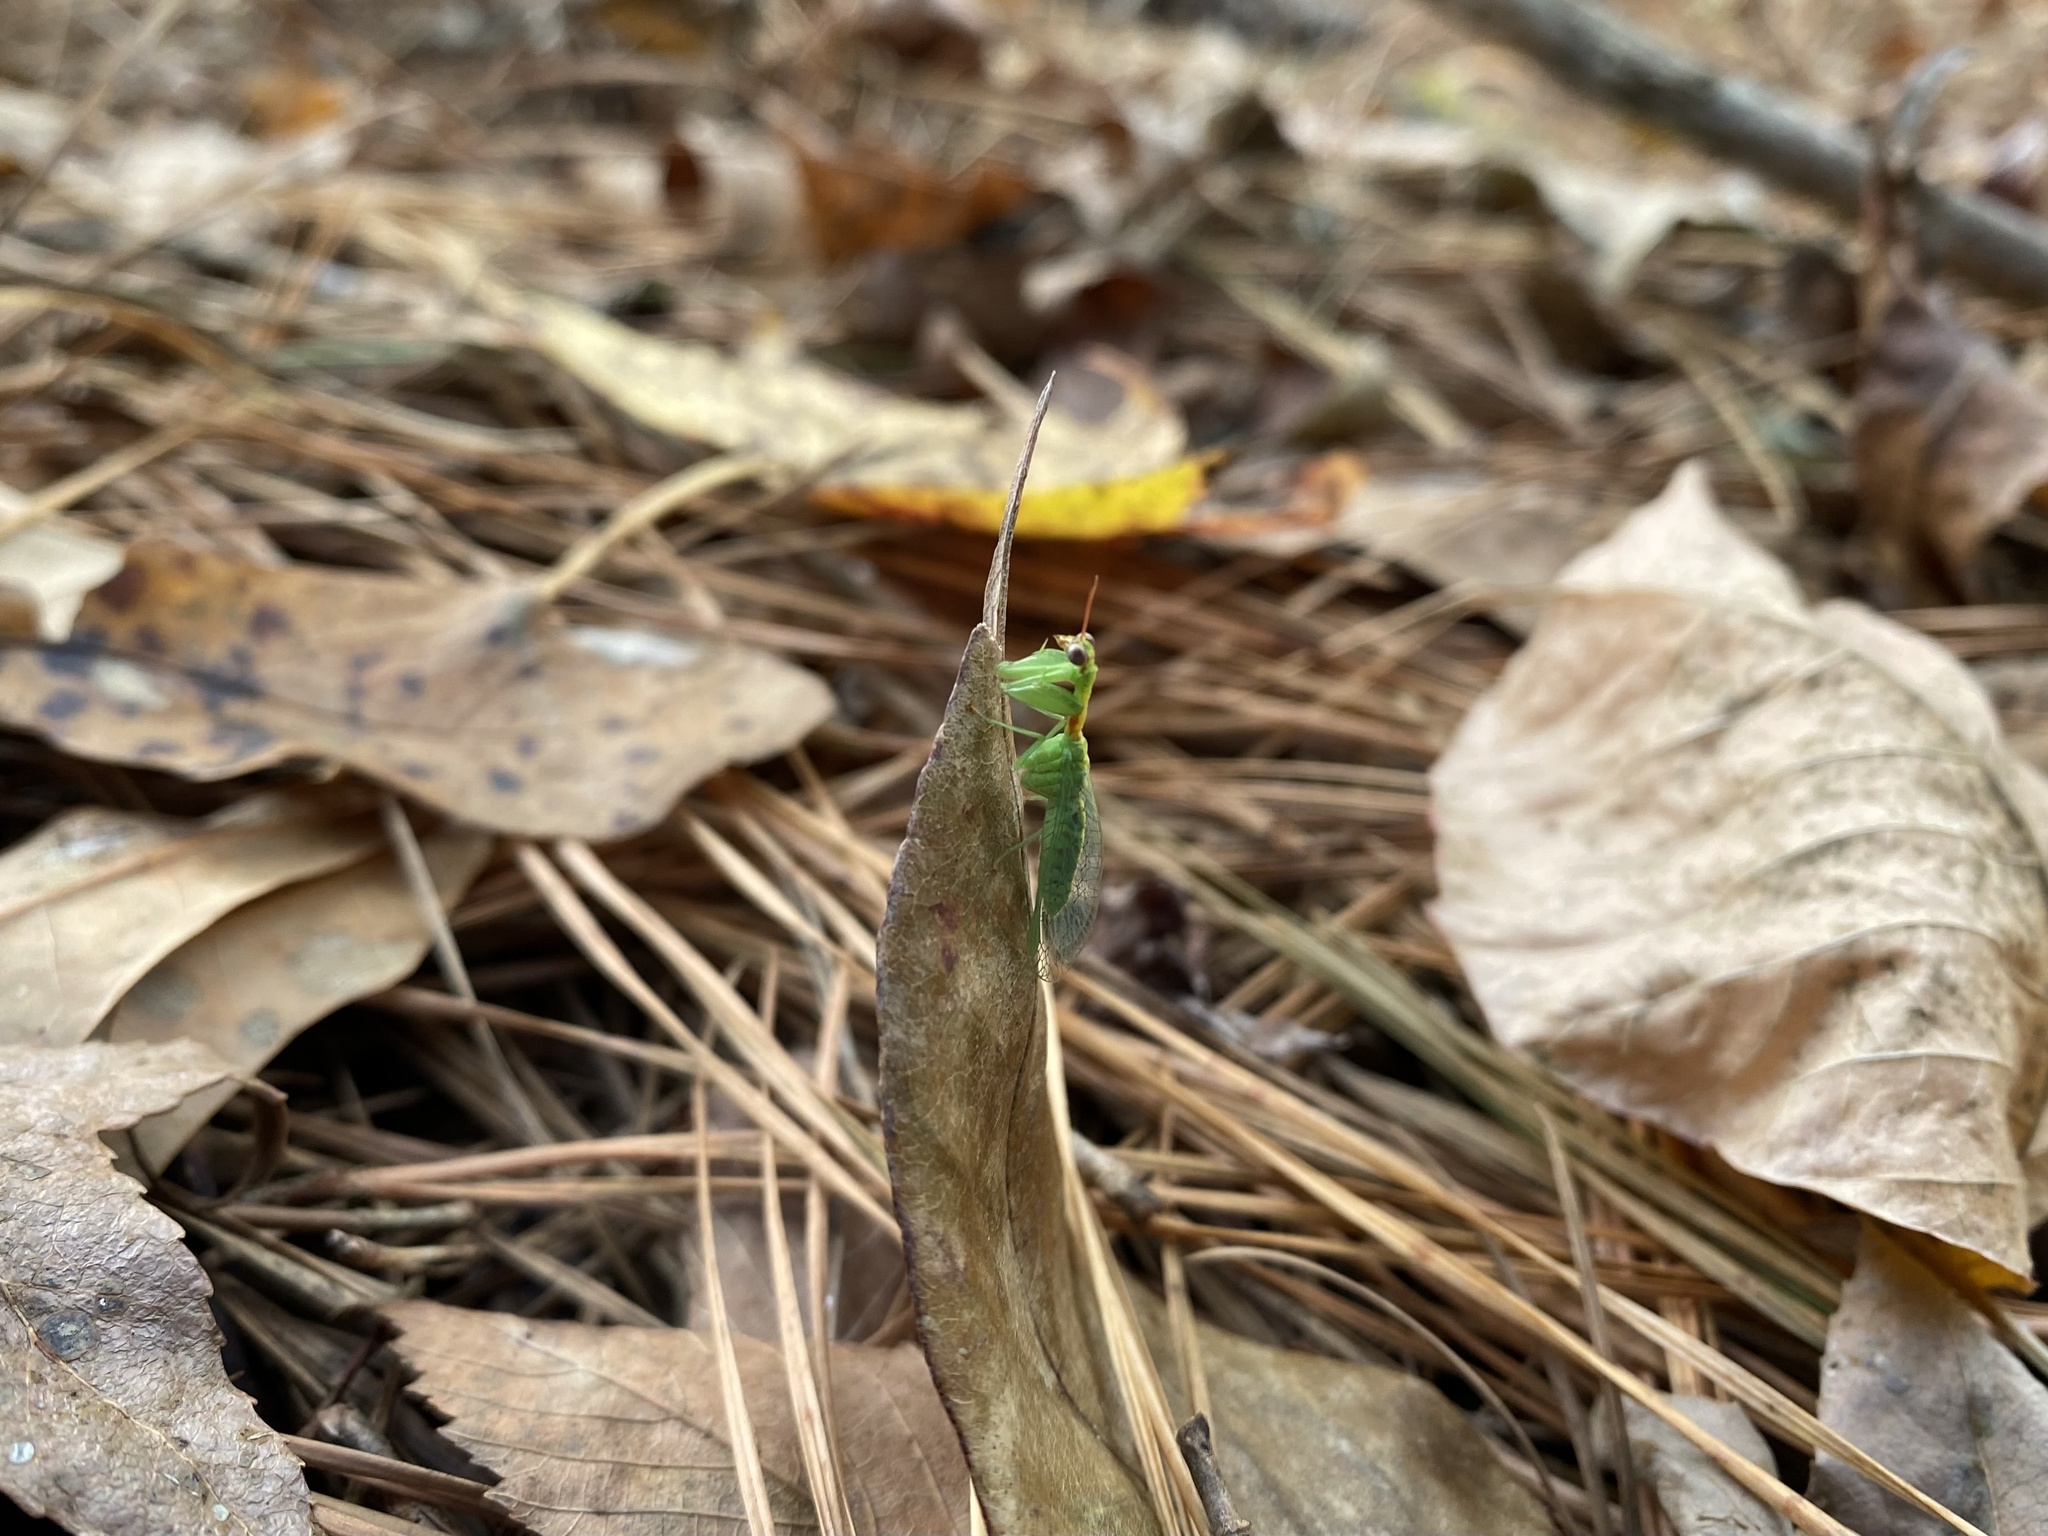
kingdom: Animalia
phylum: Arthropoda
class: Insecta
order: Neuroptera
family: Mantispidae
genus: Zeugomantispa
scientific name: Zeugomantispa minuta
